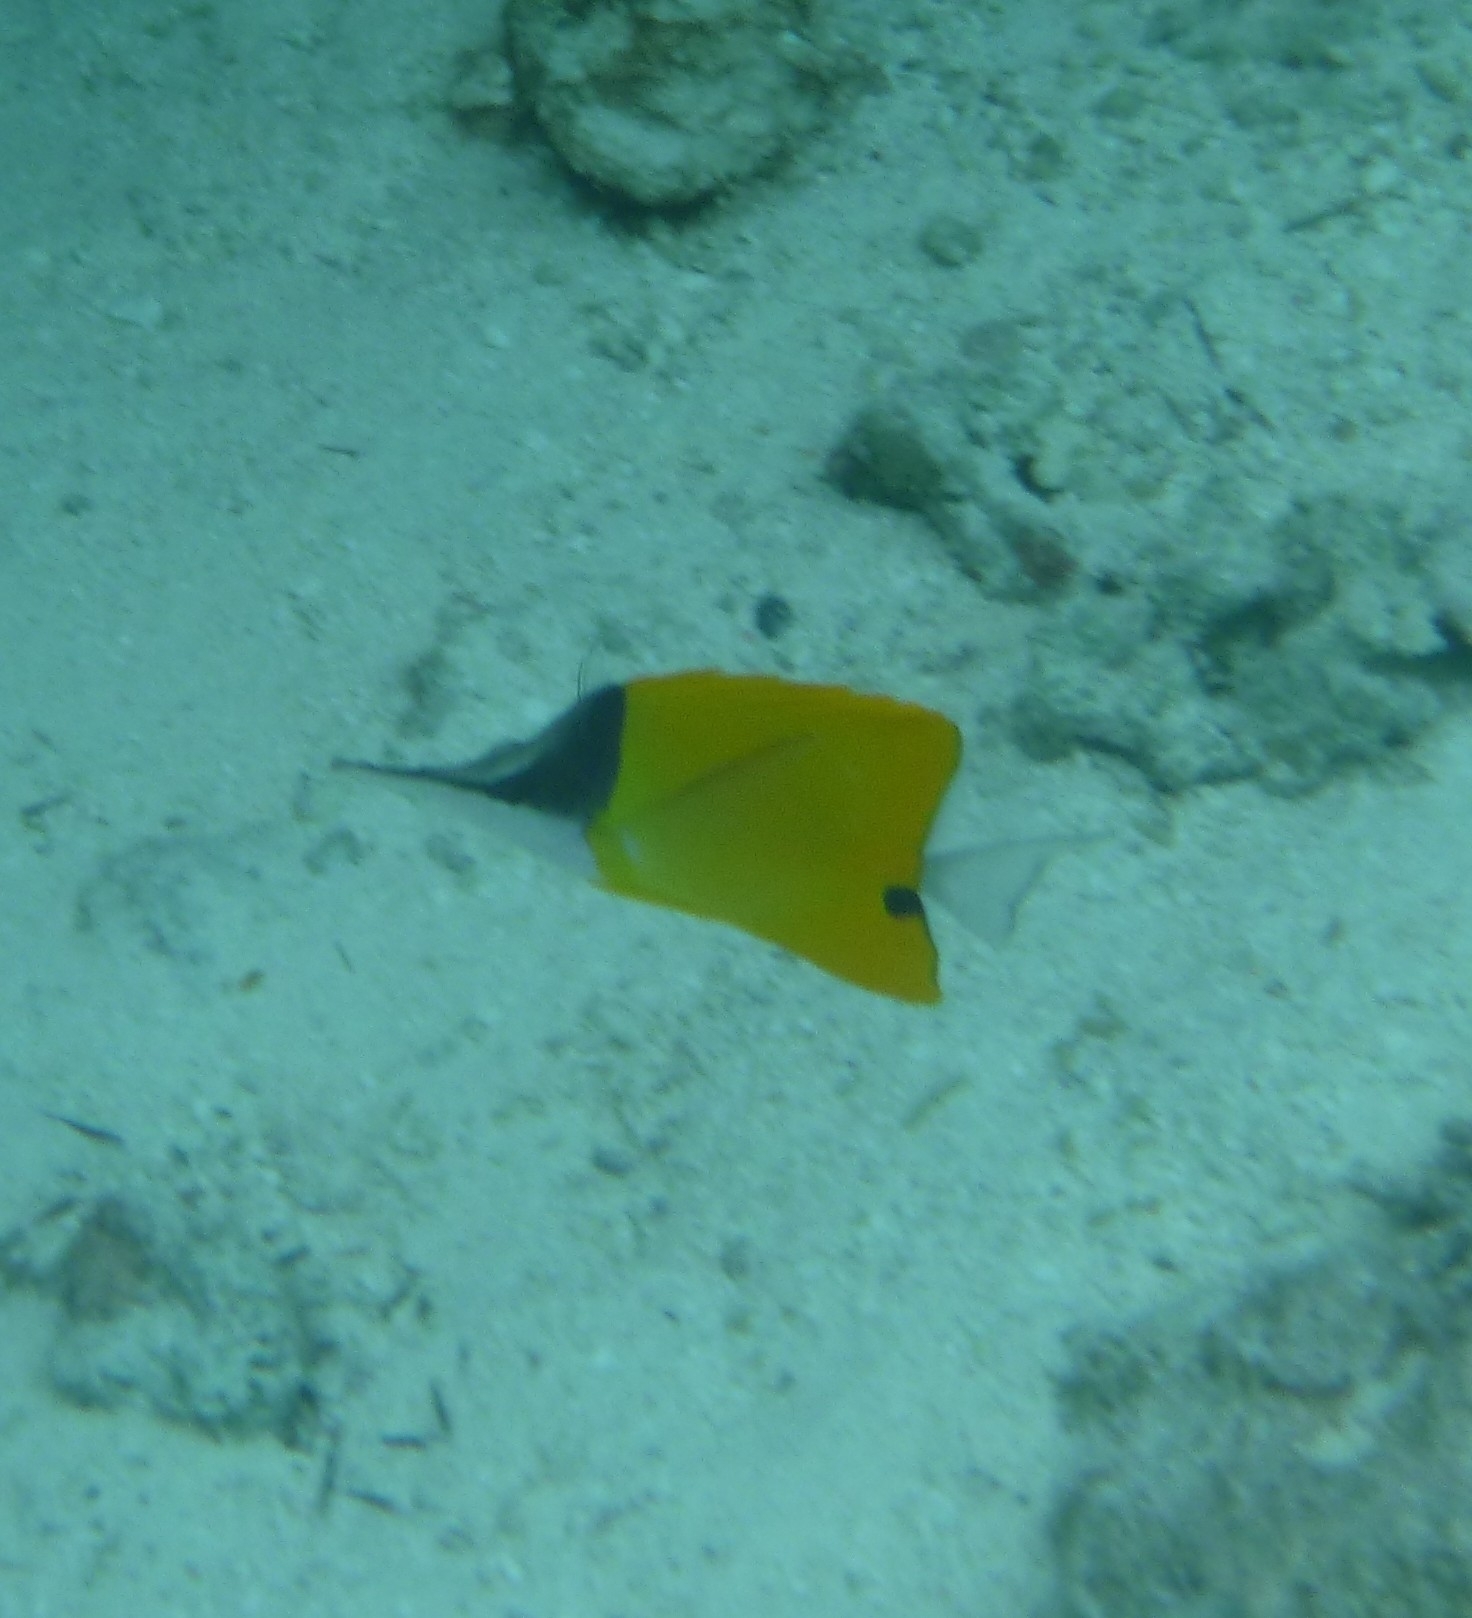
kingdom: Animalia
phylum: Chordata
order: Perciformes
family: Chaetodontidae
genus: Forcipiger
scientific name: Forcipiger flavissimus
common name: Forcepsfish
